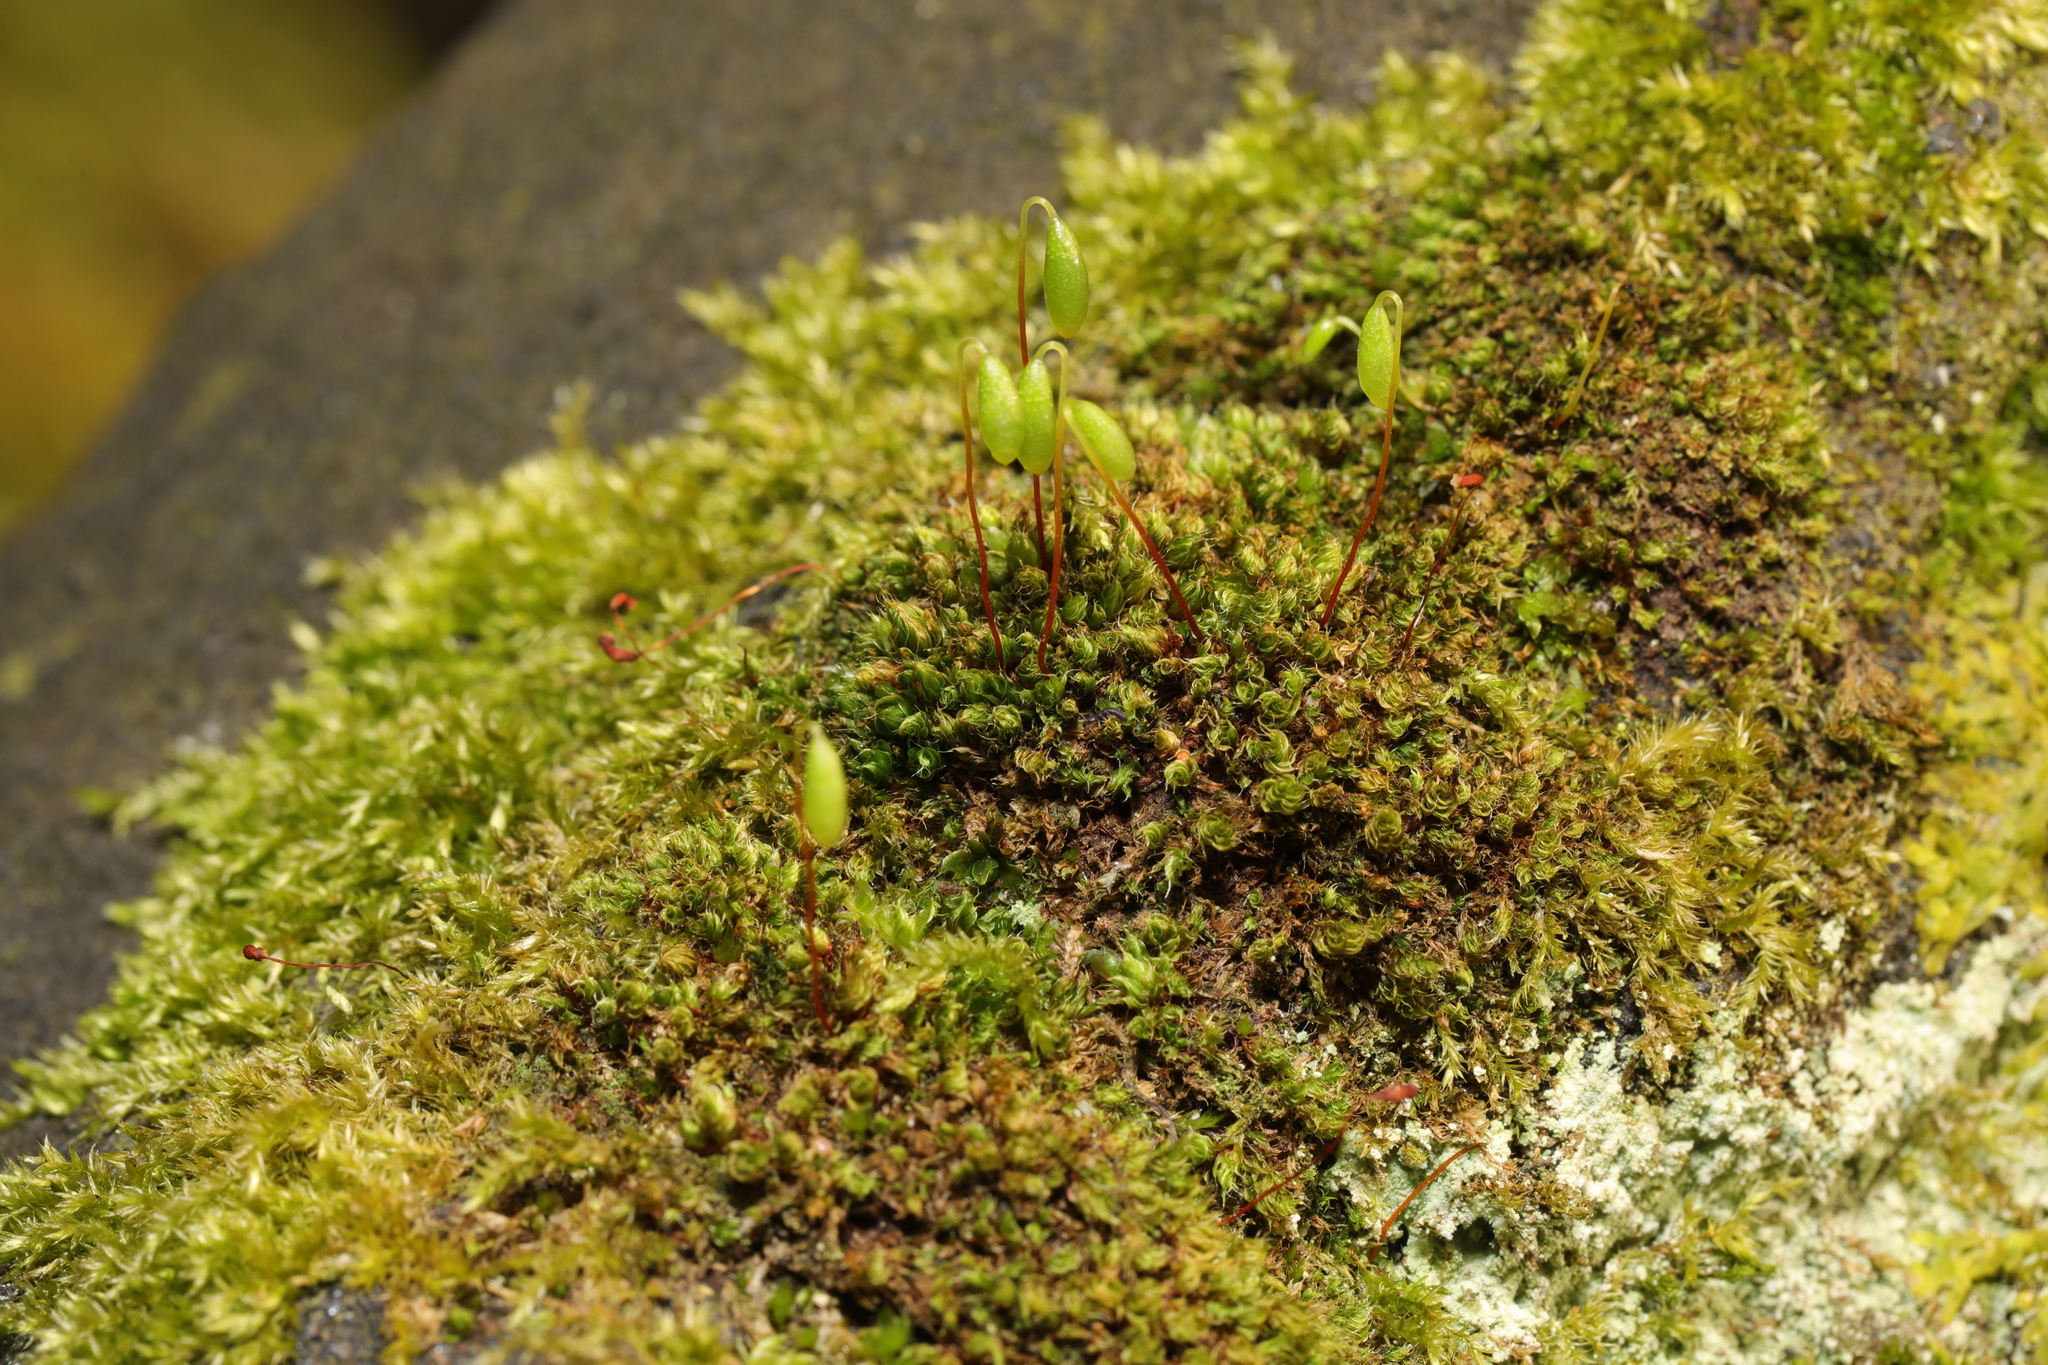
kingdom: Plantae
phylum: Bryophyta
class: Bryopsida
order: Bryales
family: Bryaceae
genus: Rosulabryum
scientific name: Rosulabryum capillare
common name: Capillary thread-moss
